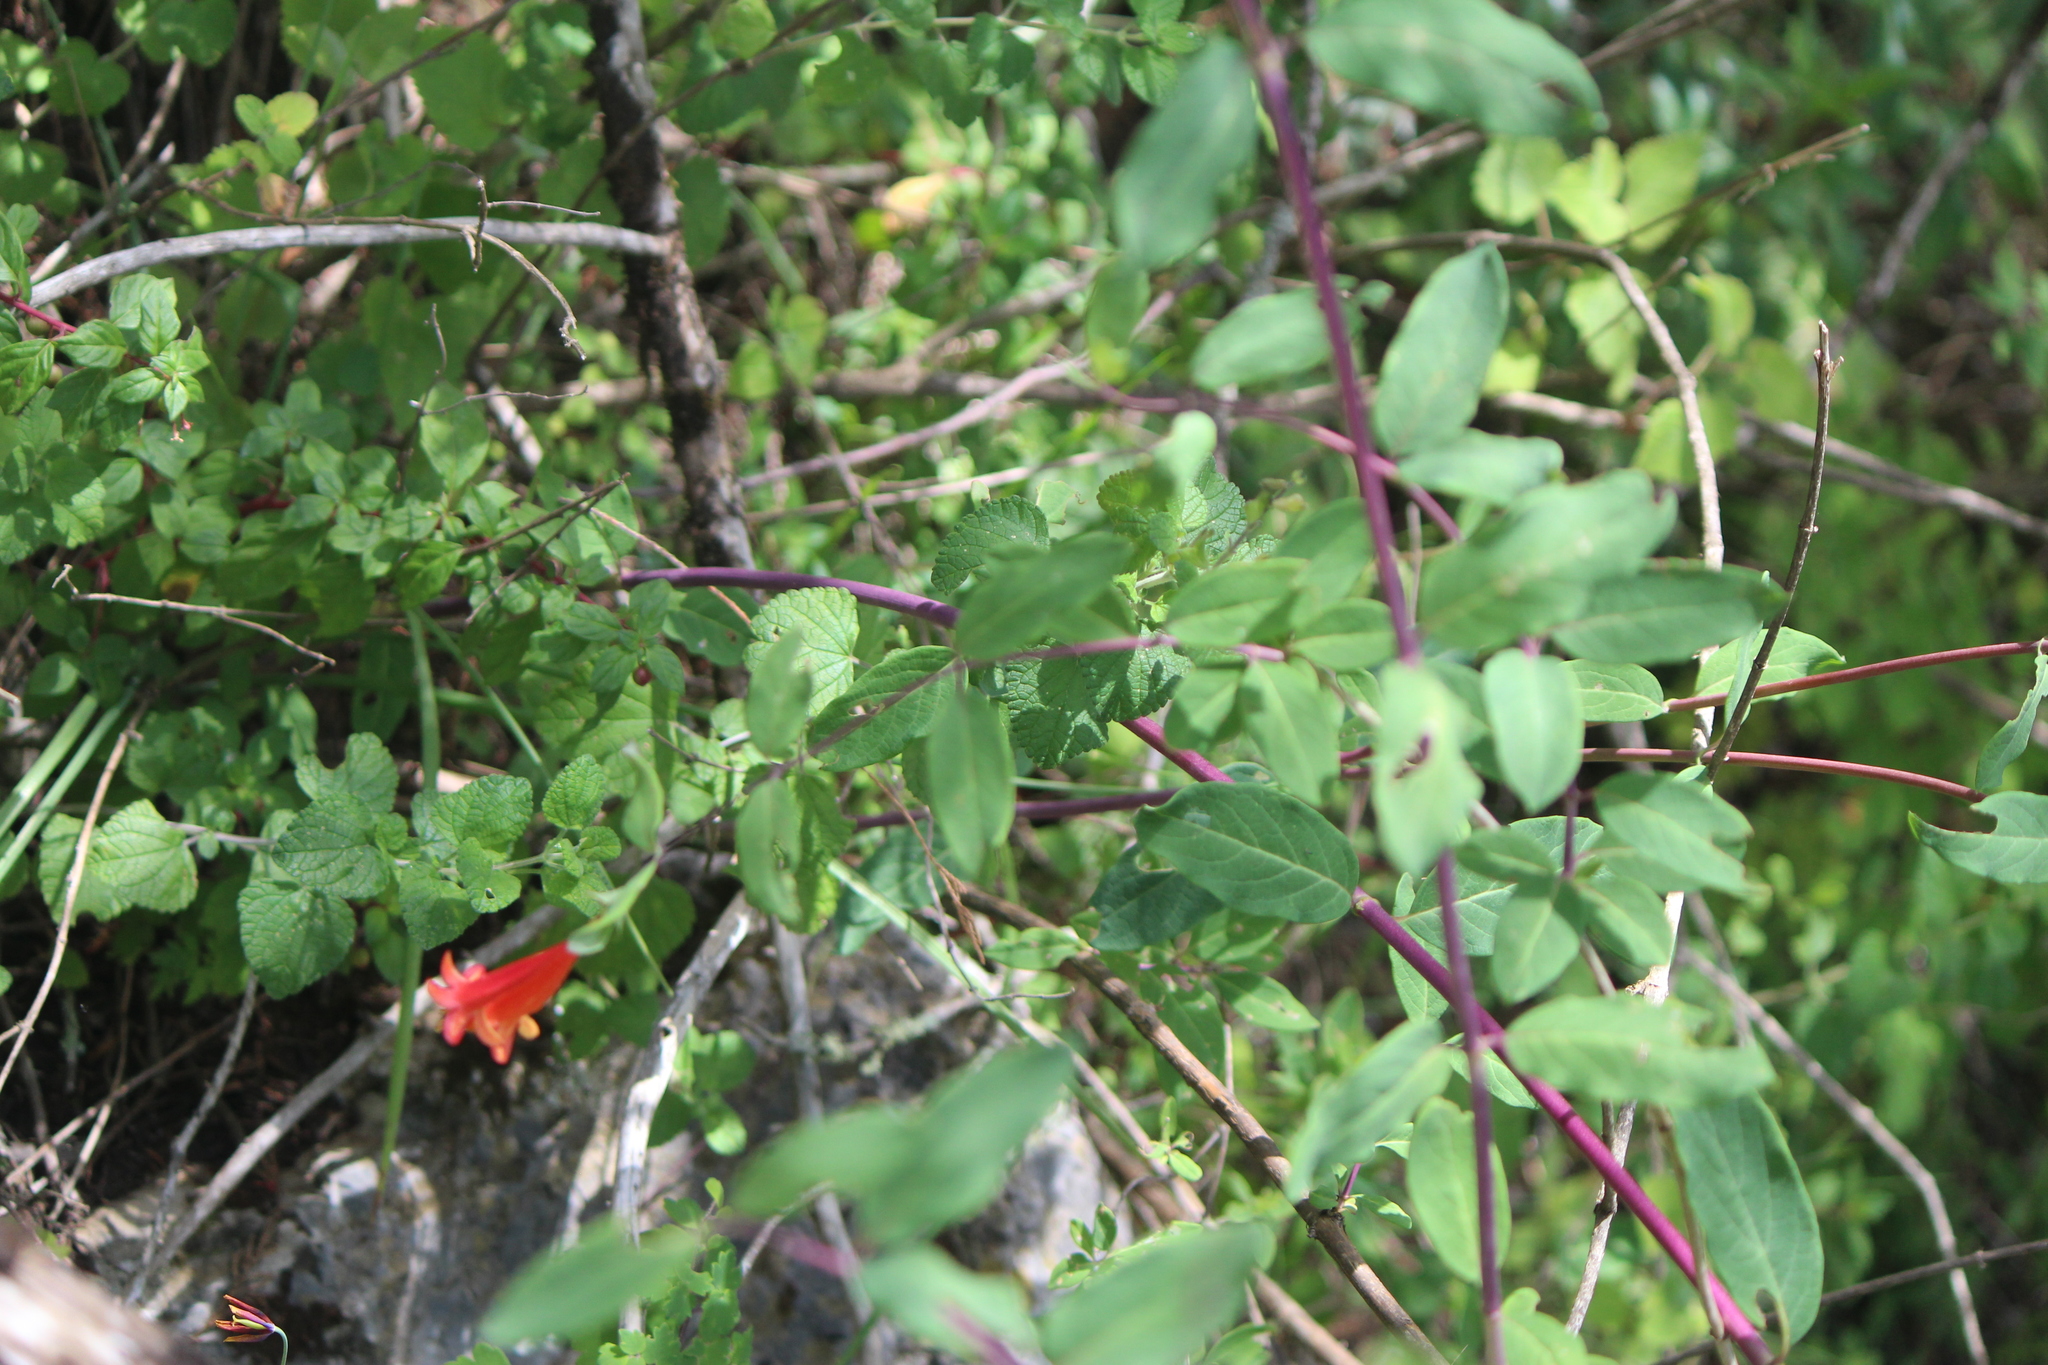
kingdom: Plantae
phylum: Tracheophyta
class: Magnoliopsida
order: Dipsacales
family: Caprifoliaceae
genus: Lonicera
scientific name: Lonicera pilosa
